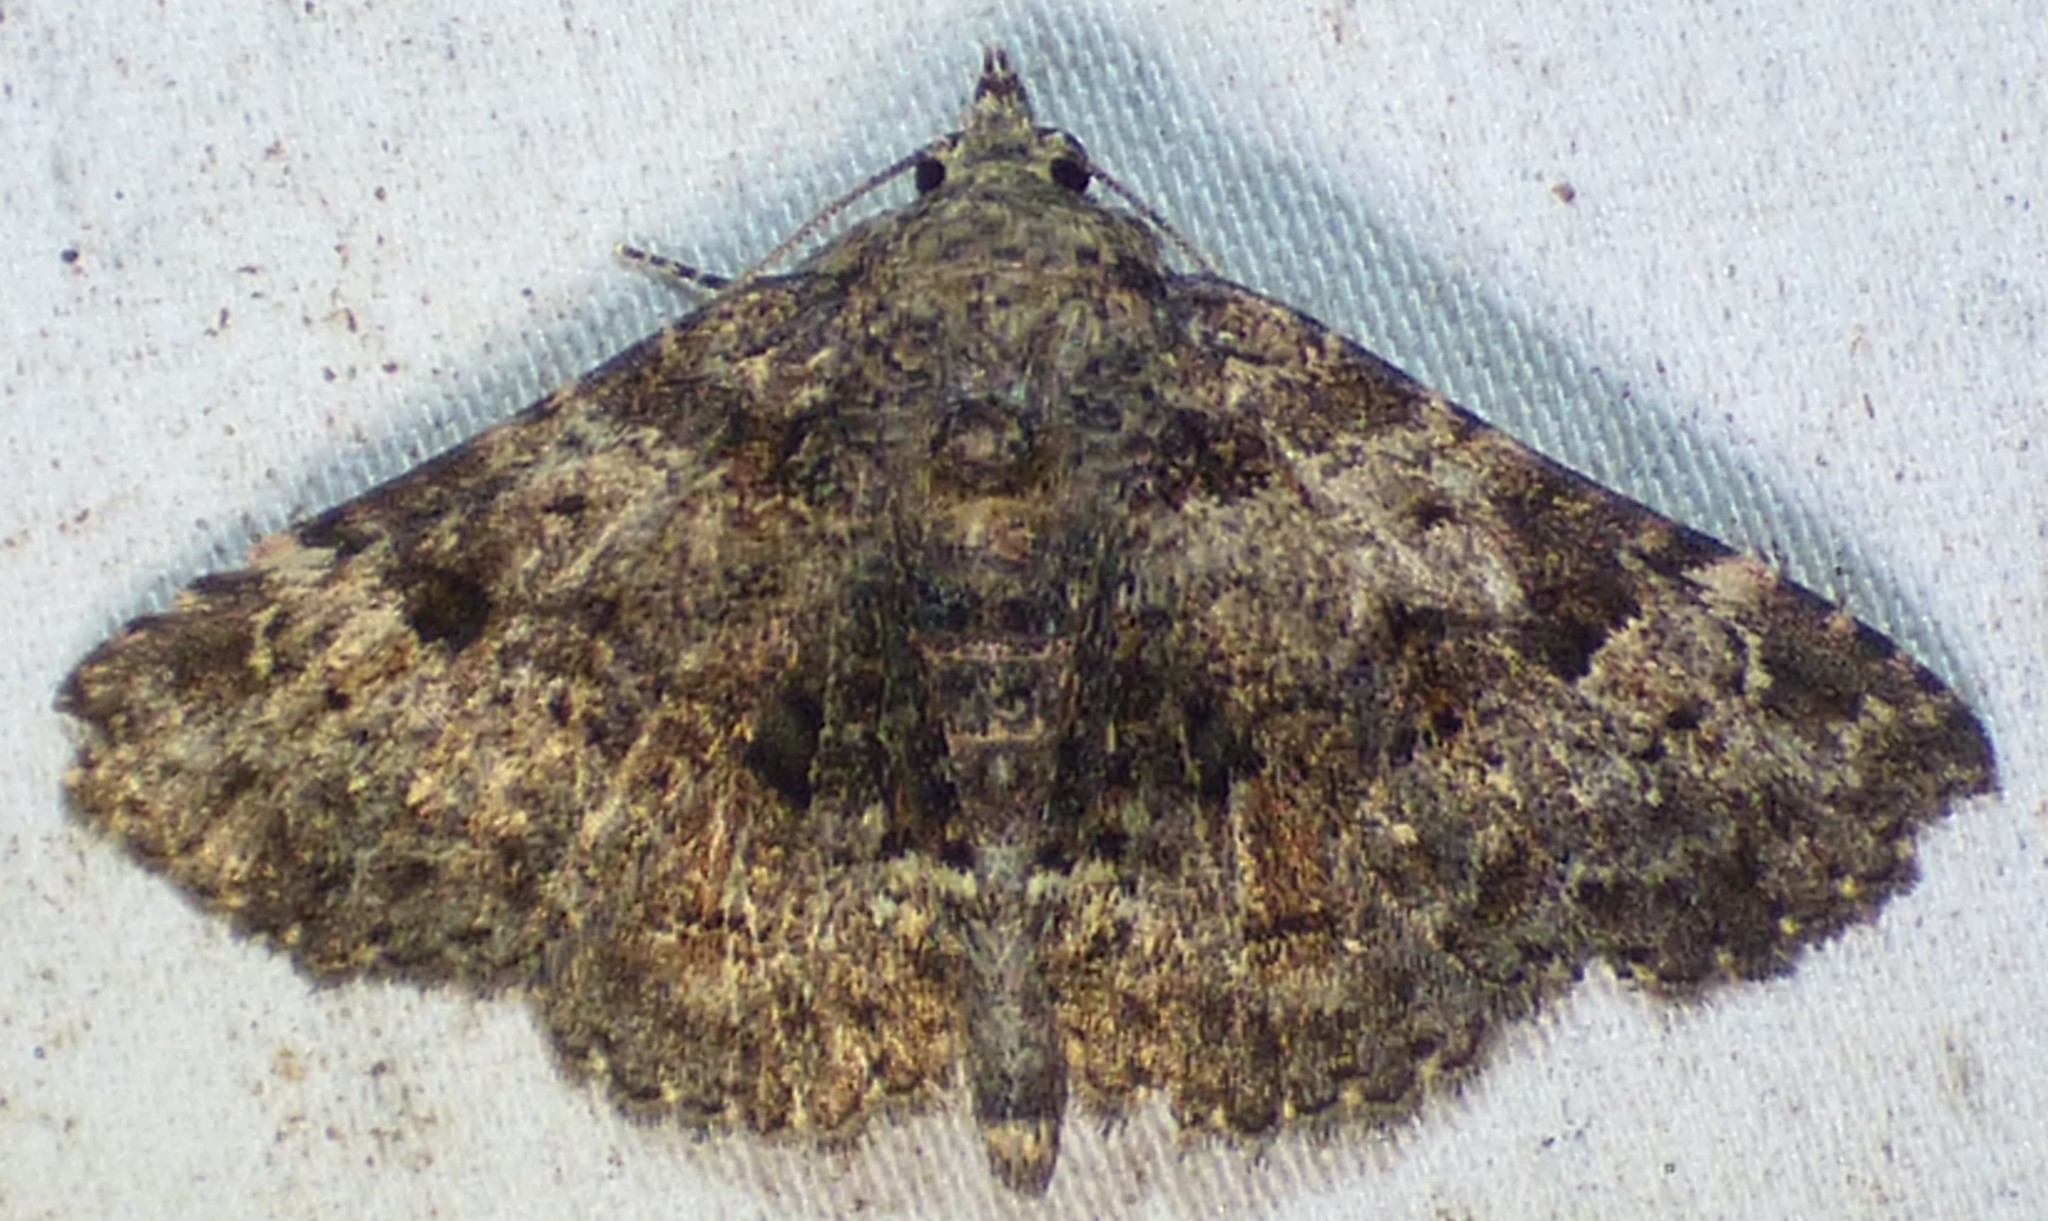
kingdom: Animalia
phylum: Arthropoda
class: Insecta
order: Lepidoptera
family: Erebidae
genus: Metalectra
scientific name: Metalectra discalis
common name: Common fungus moth
